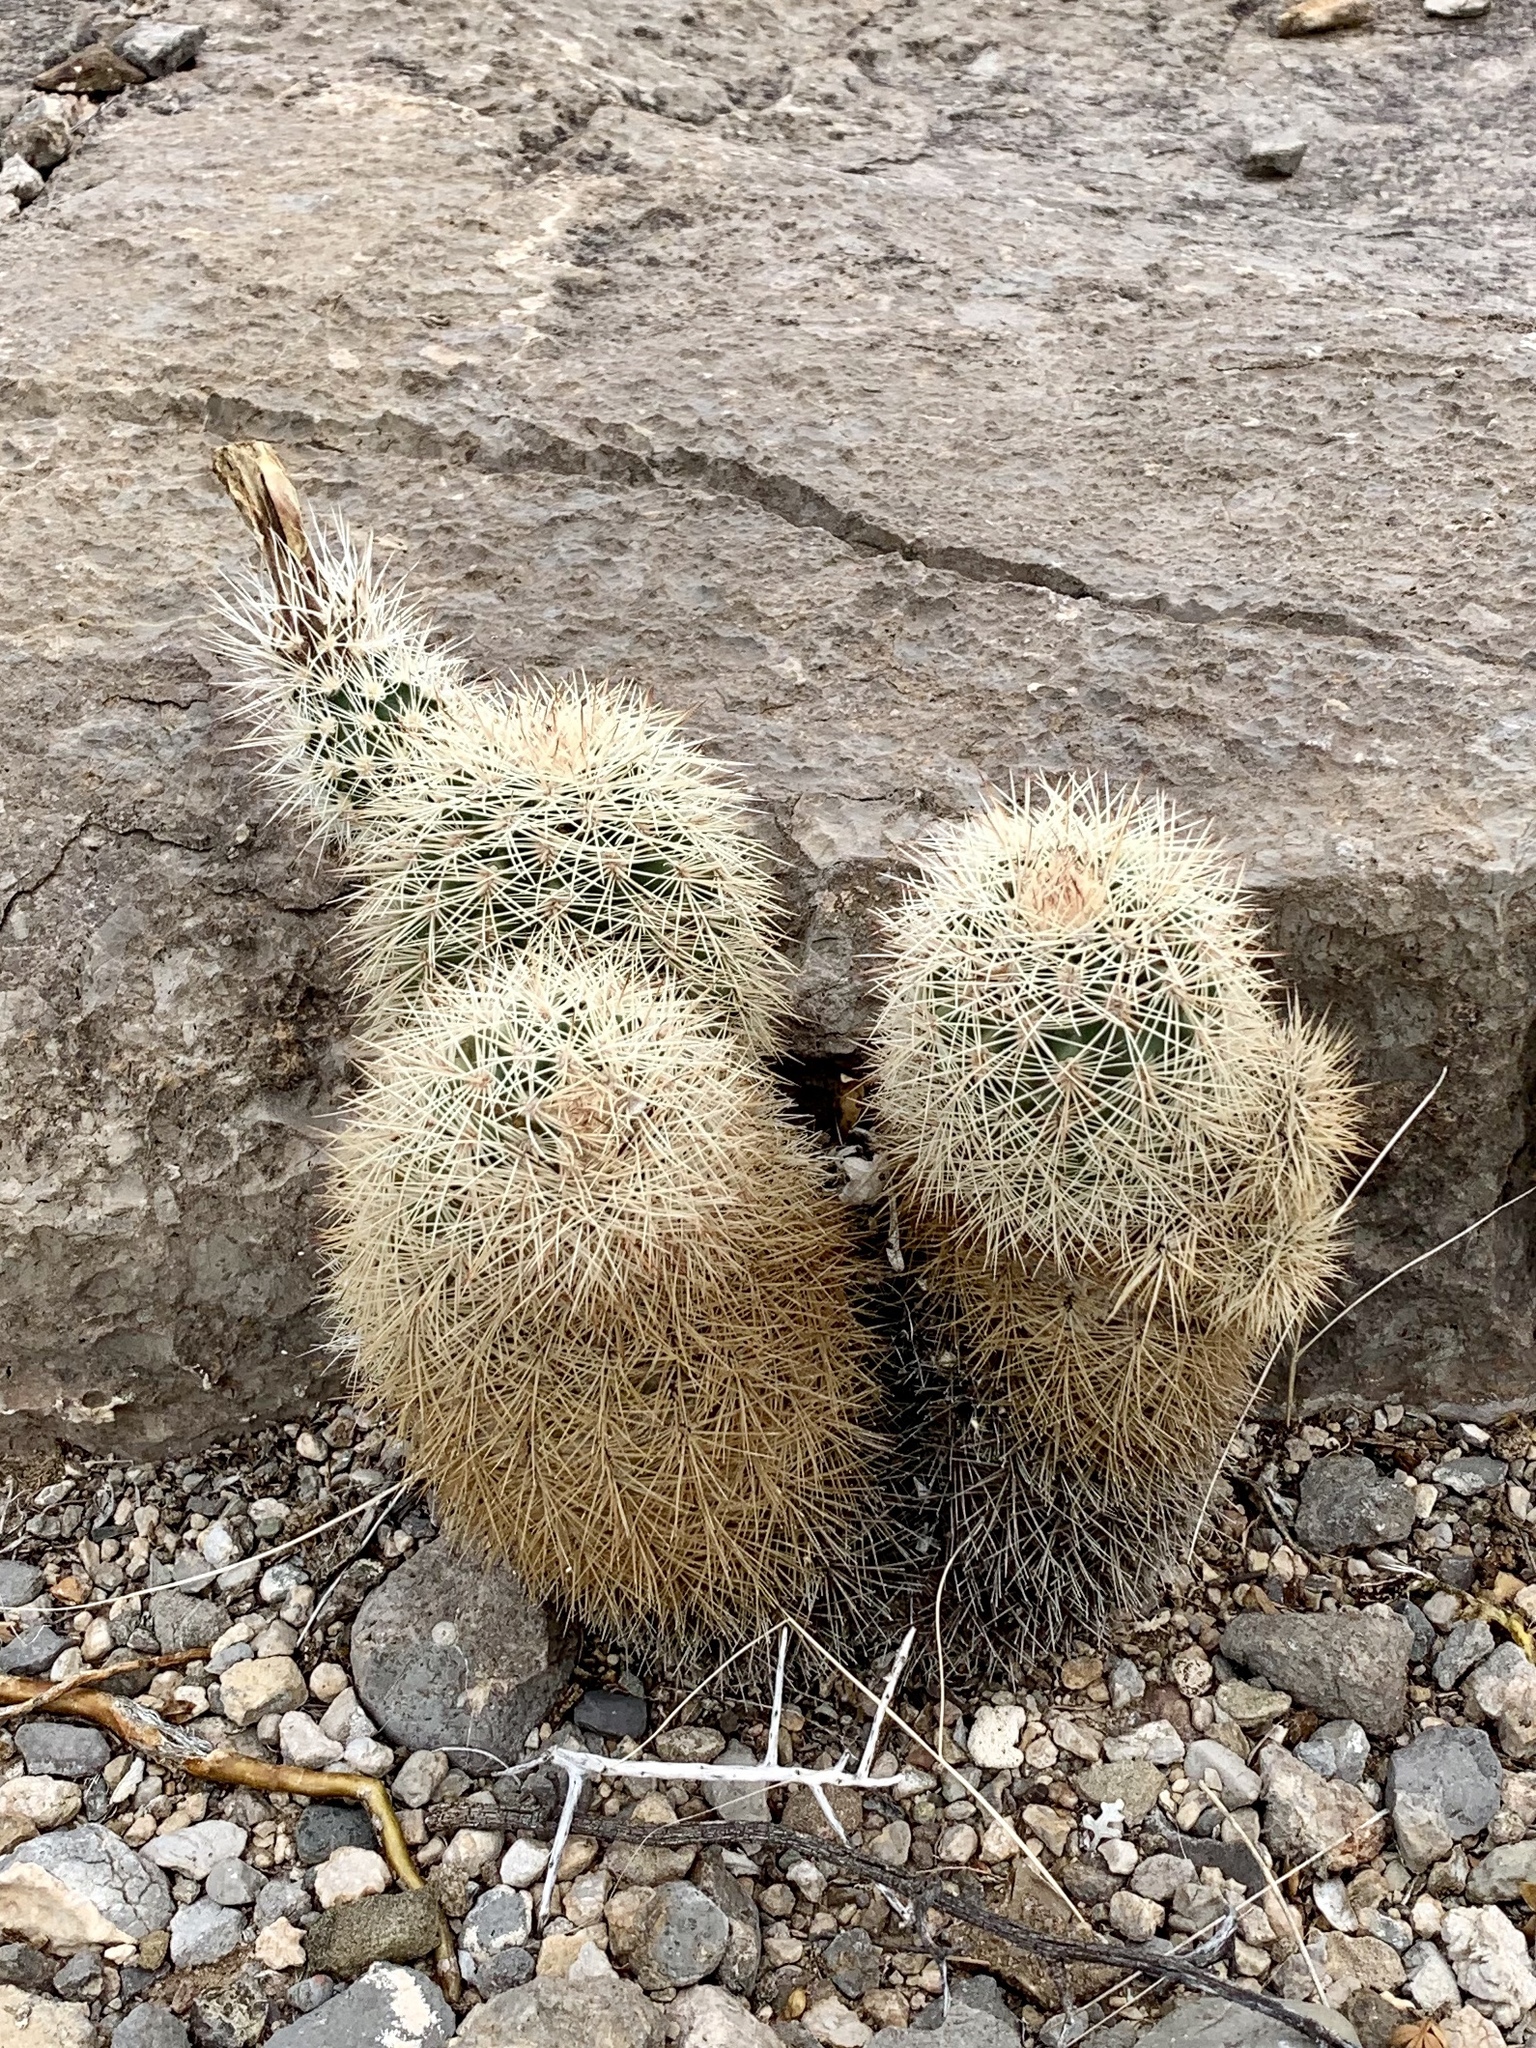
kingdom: Plantae
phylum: Tracheophyta
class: Magnoliopsida
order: Caryophyllales
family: Cactaceae
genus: Echinocereus
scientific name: Echinocereus dasyacanthus
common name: Spiny hedgehog cactus
